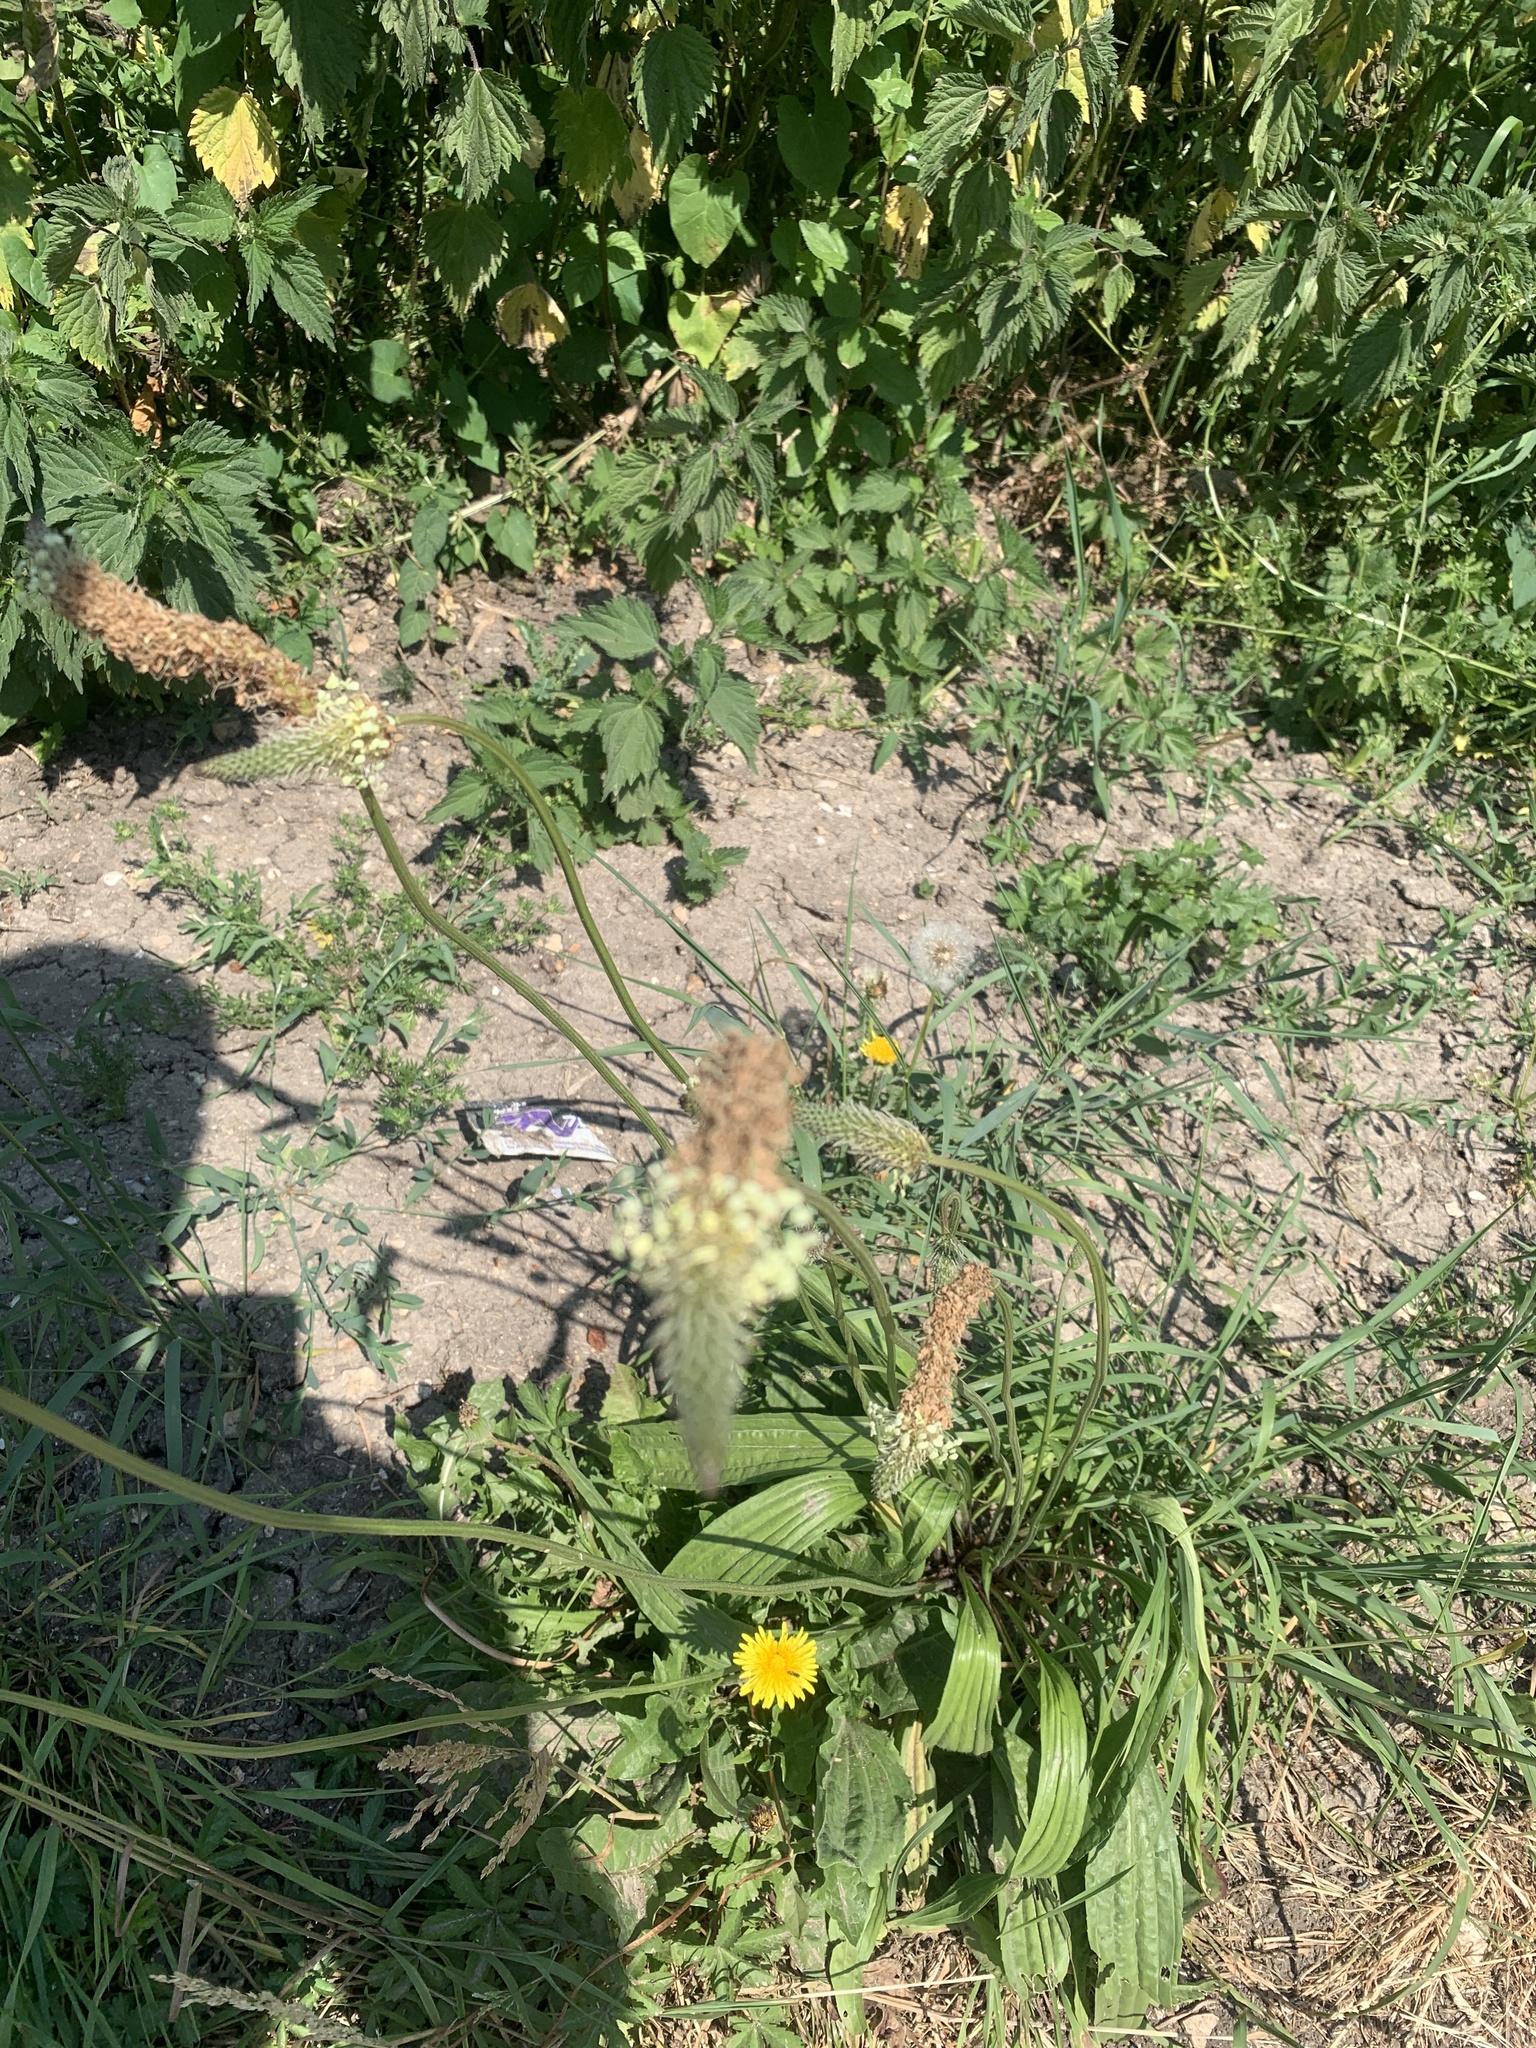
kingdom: Plantae
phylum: Tracheophyta
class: Magnoliopsida
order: Lamiales
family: Plantaginaceae
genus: Plantago
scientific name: Plantago lanceolata
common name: Ribwort plantain
